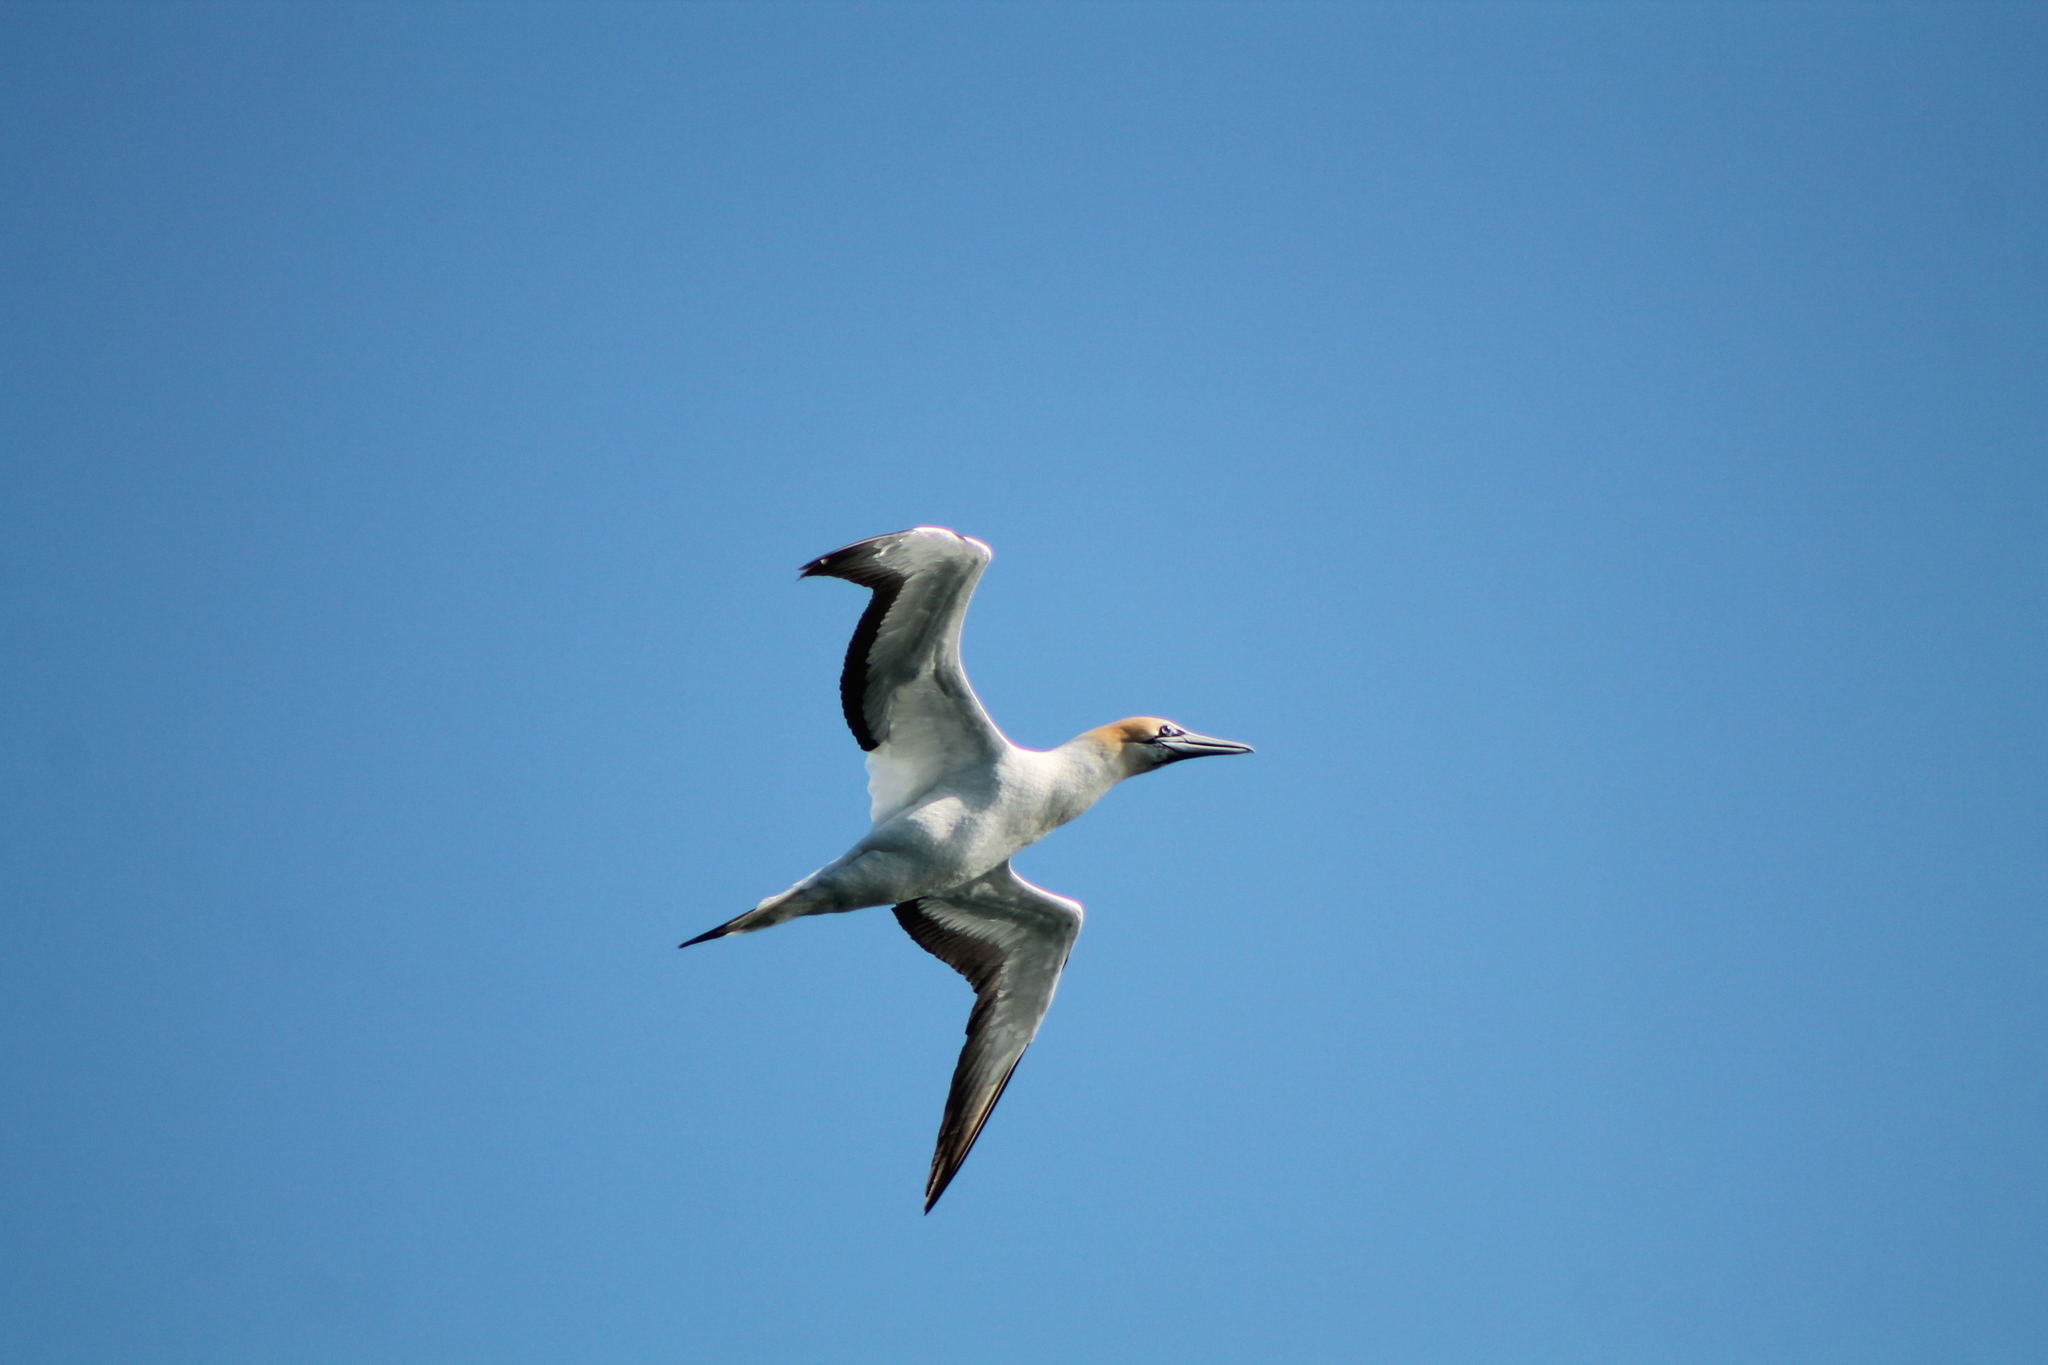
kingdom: Animalia
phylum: Chordata
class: Aves
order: Suliformes
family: Sulidae
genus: Morus
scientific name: Morus serrator
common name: Australasian gannet
